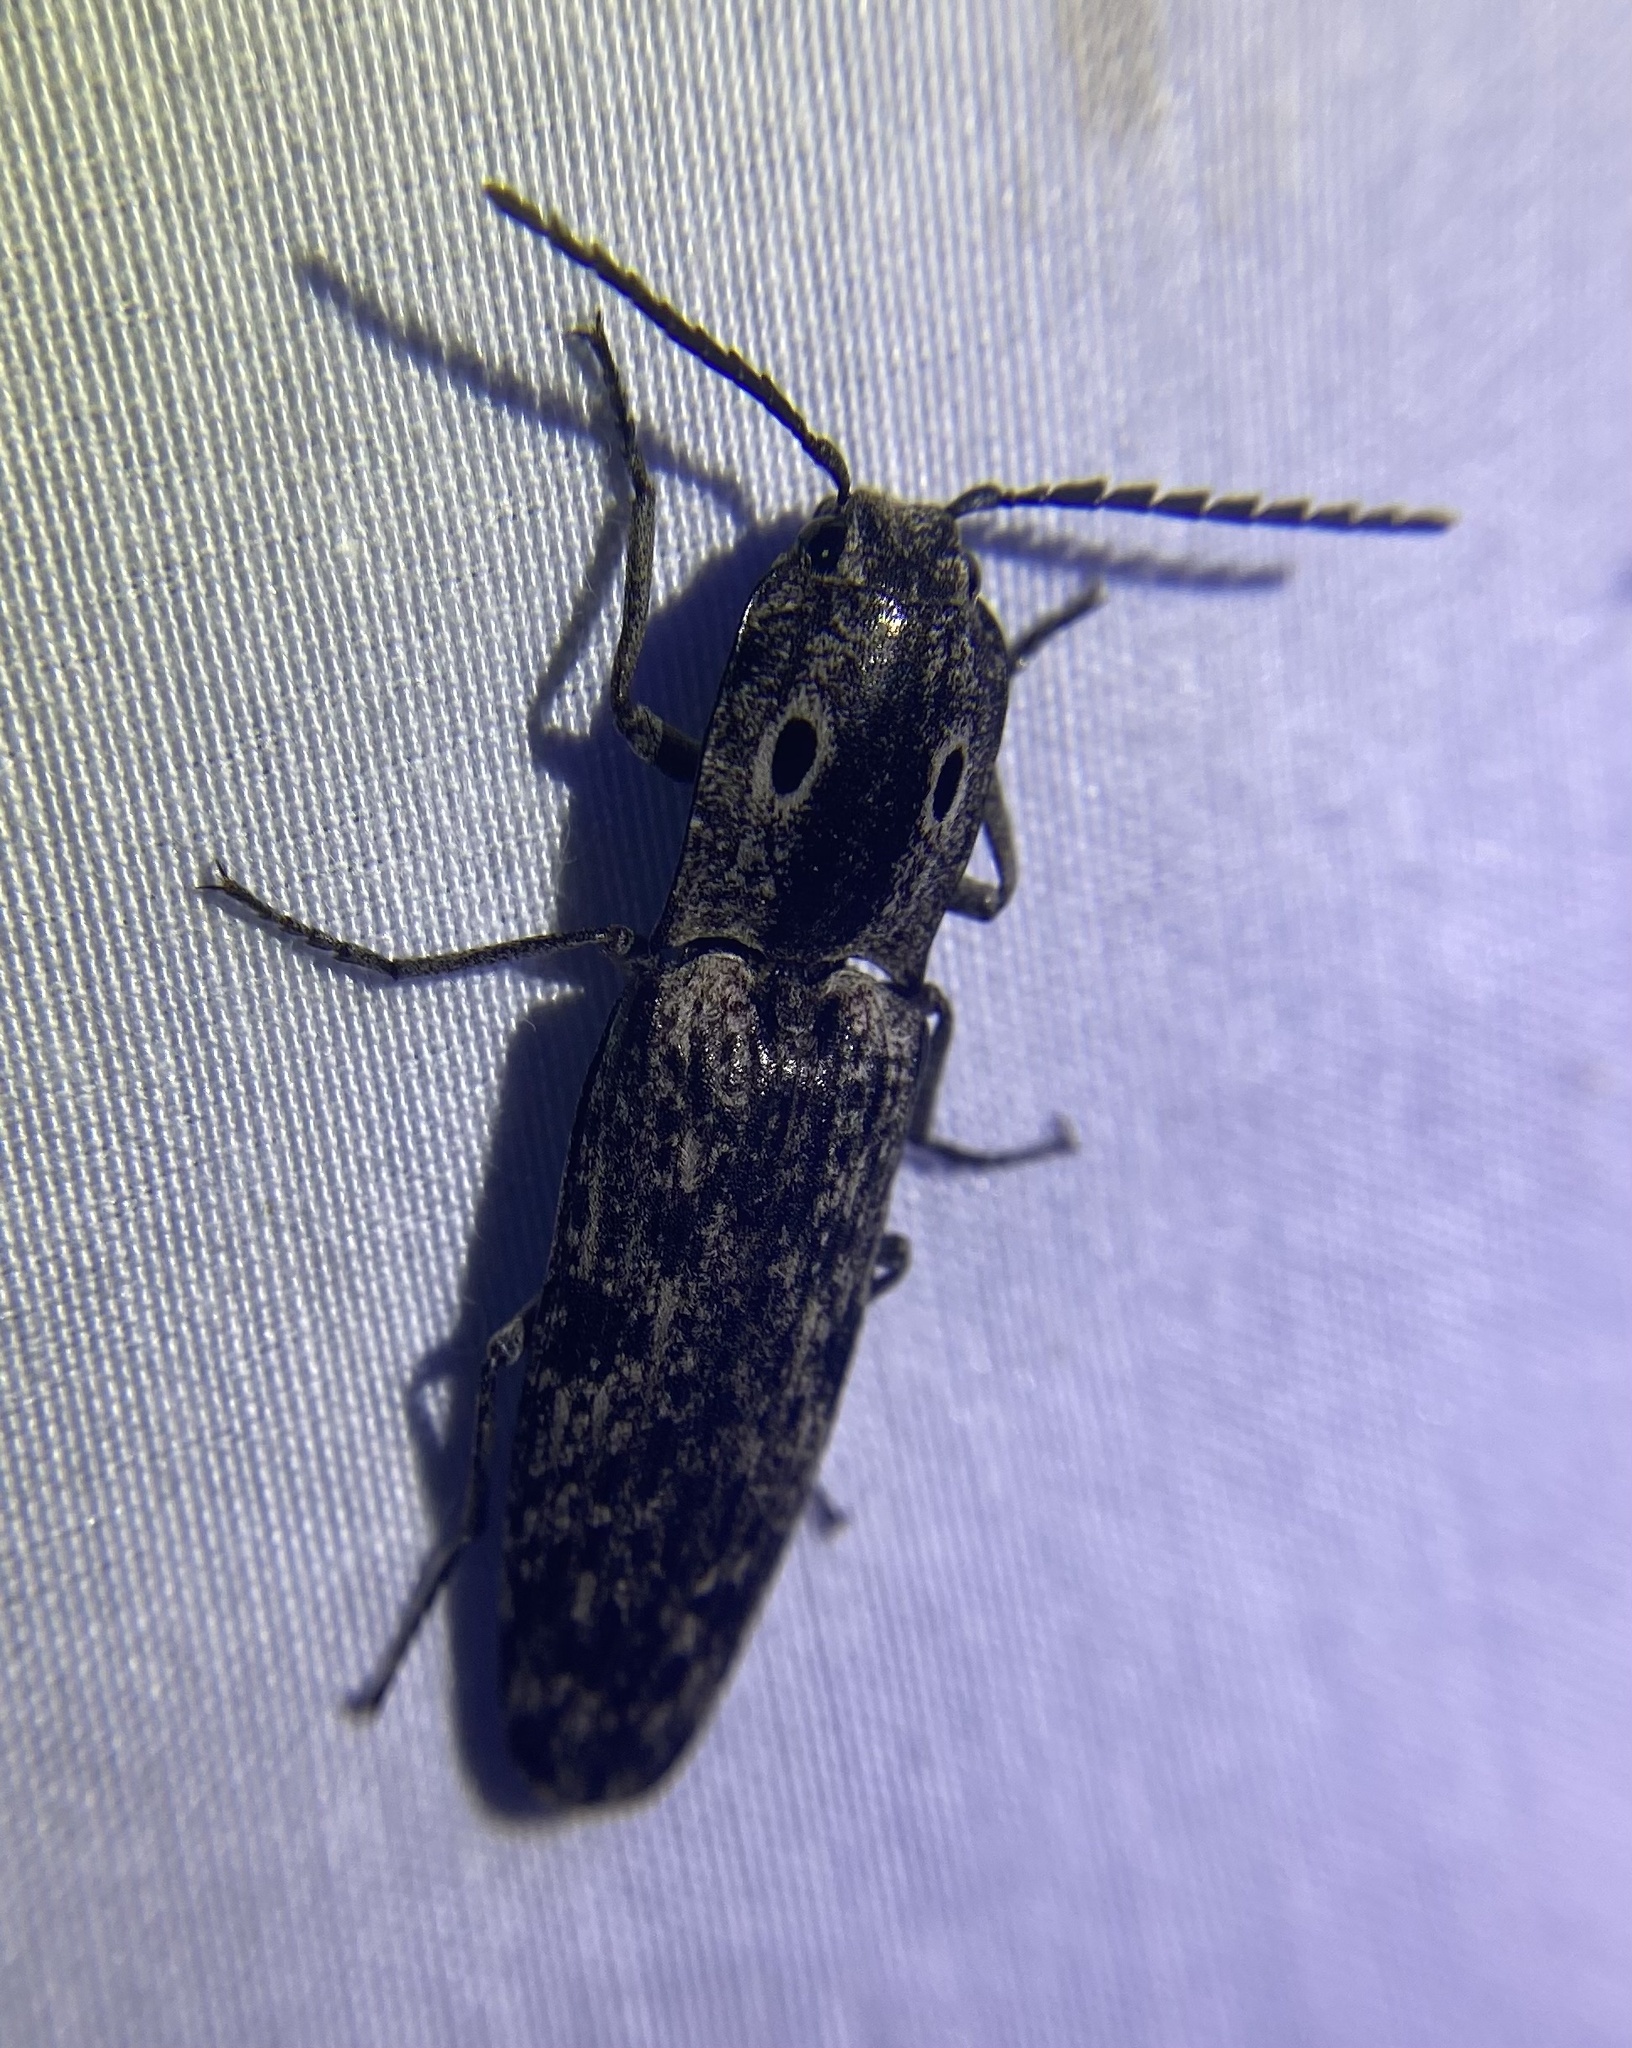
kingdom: Animalia
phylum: Arthropoda
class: Insecta
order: Coleoptera
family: Elateridae
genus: Alaus
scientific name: Alaus myops
